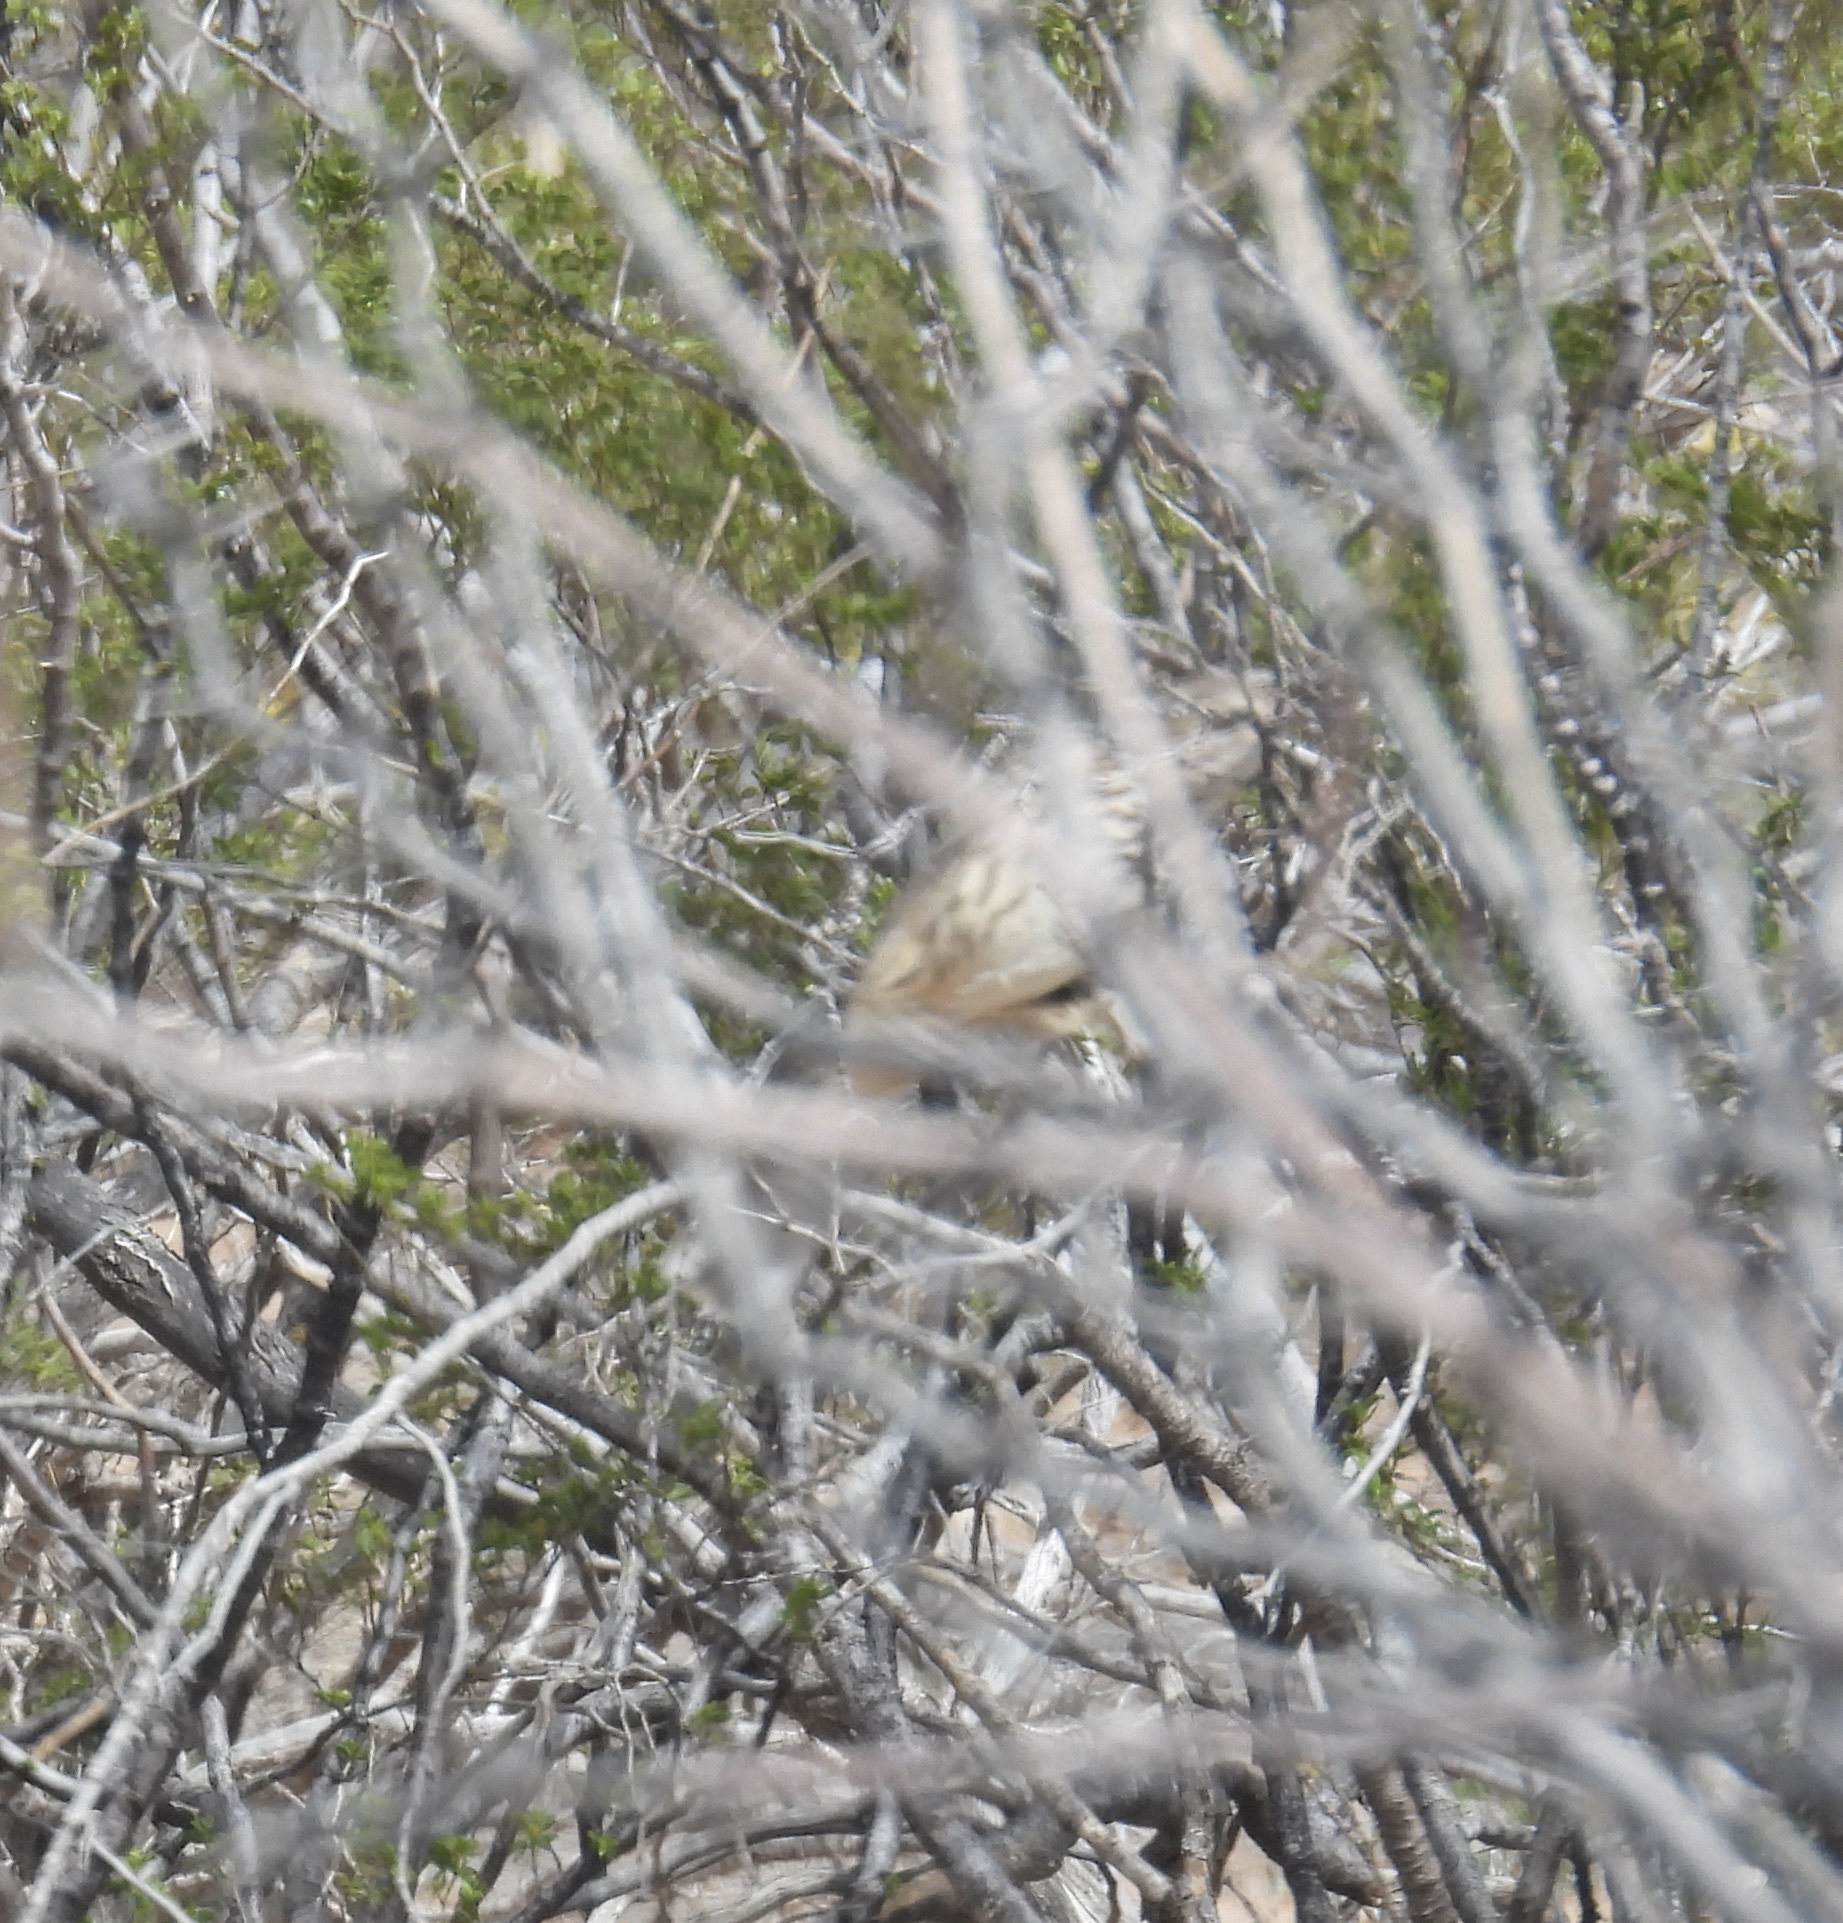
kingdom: Animalia
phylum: Chordata
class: Aves
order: Passeriformes
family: Mimidae
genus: Oreoscoptes
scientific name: Oreoscoptes montanus
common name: Sage thrasher
